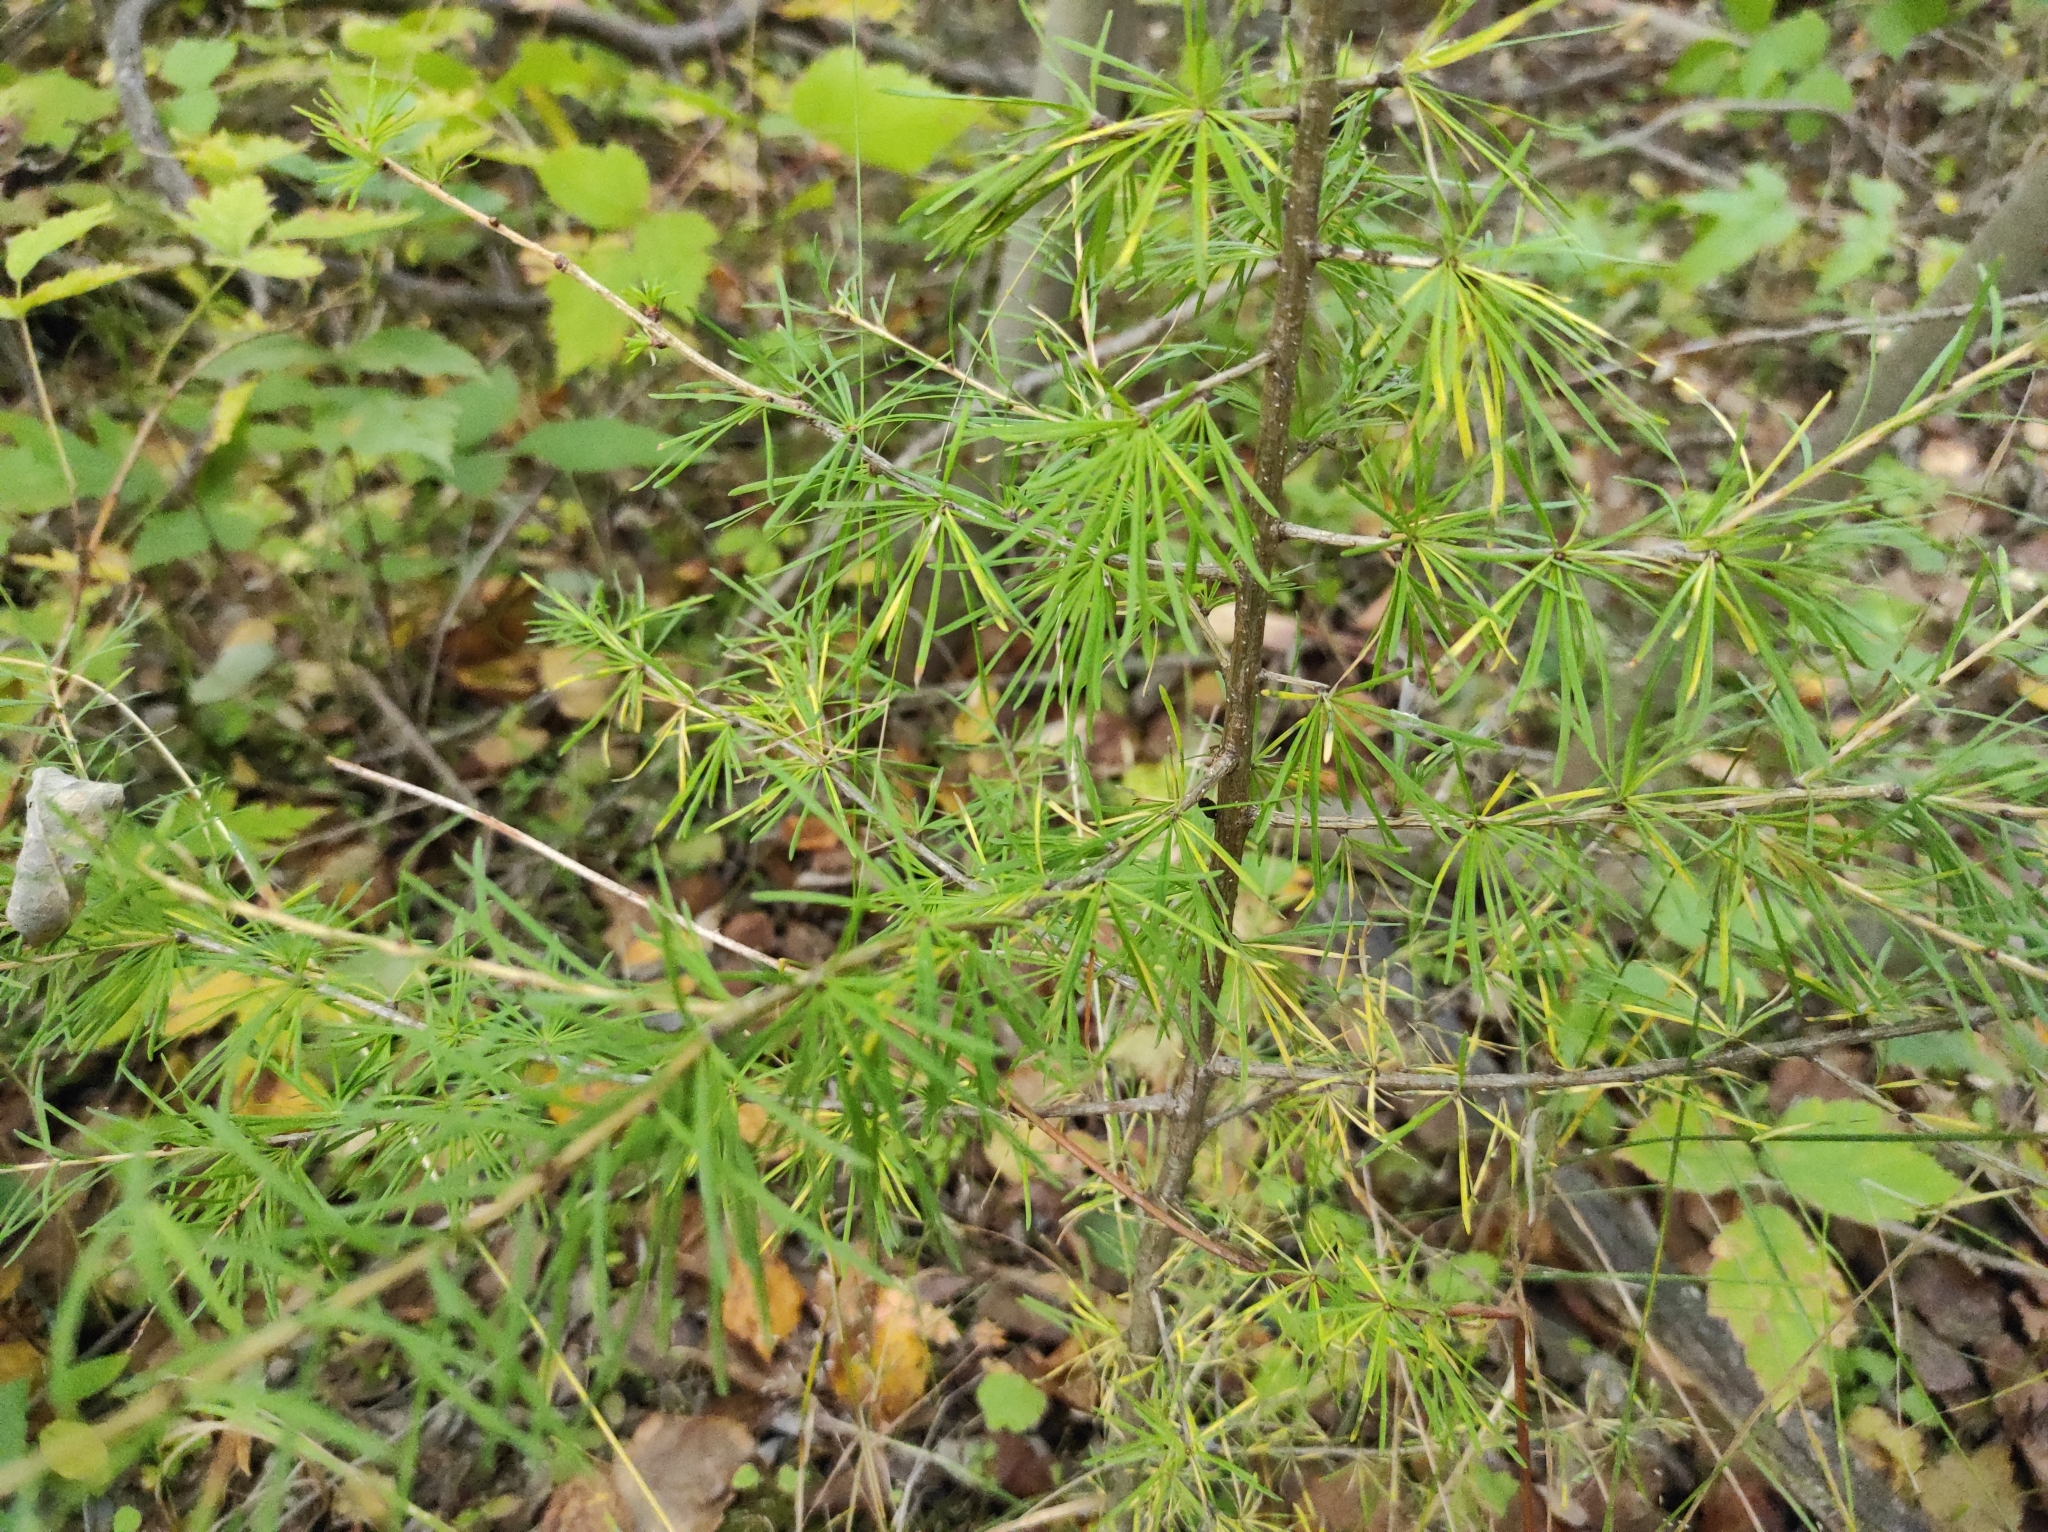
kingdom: Plantae
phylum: Tracheophyta
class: Pinopsida
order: Pinales
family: Pinaceae
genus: Larix
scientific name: Larix sibirica
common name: Siberian larch
